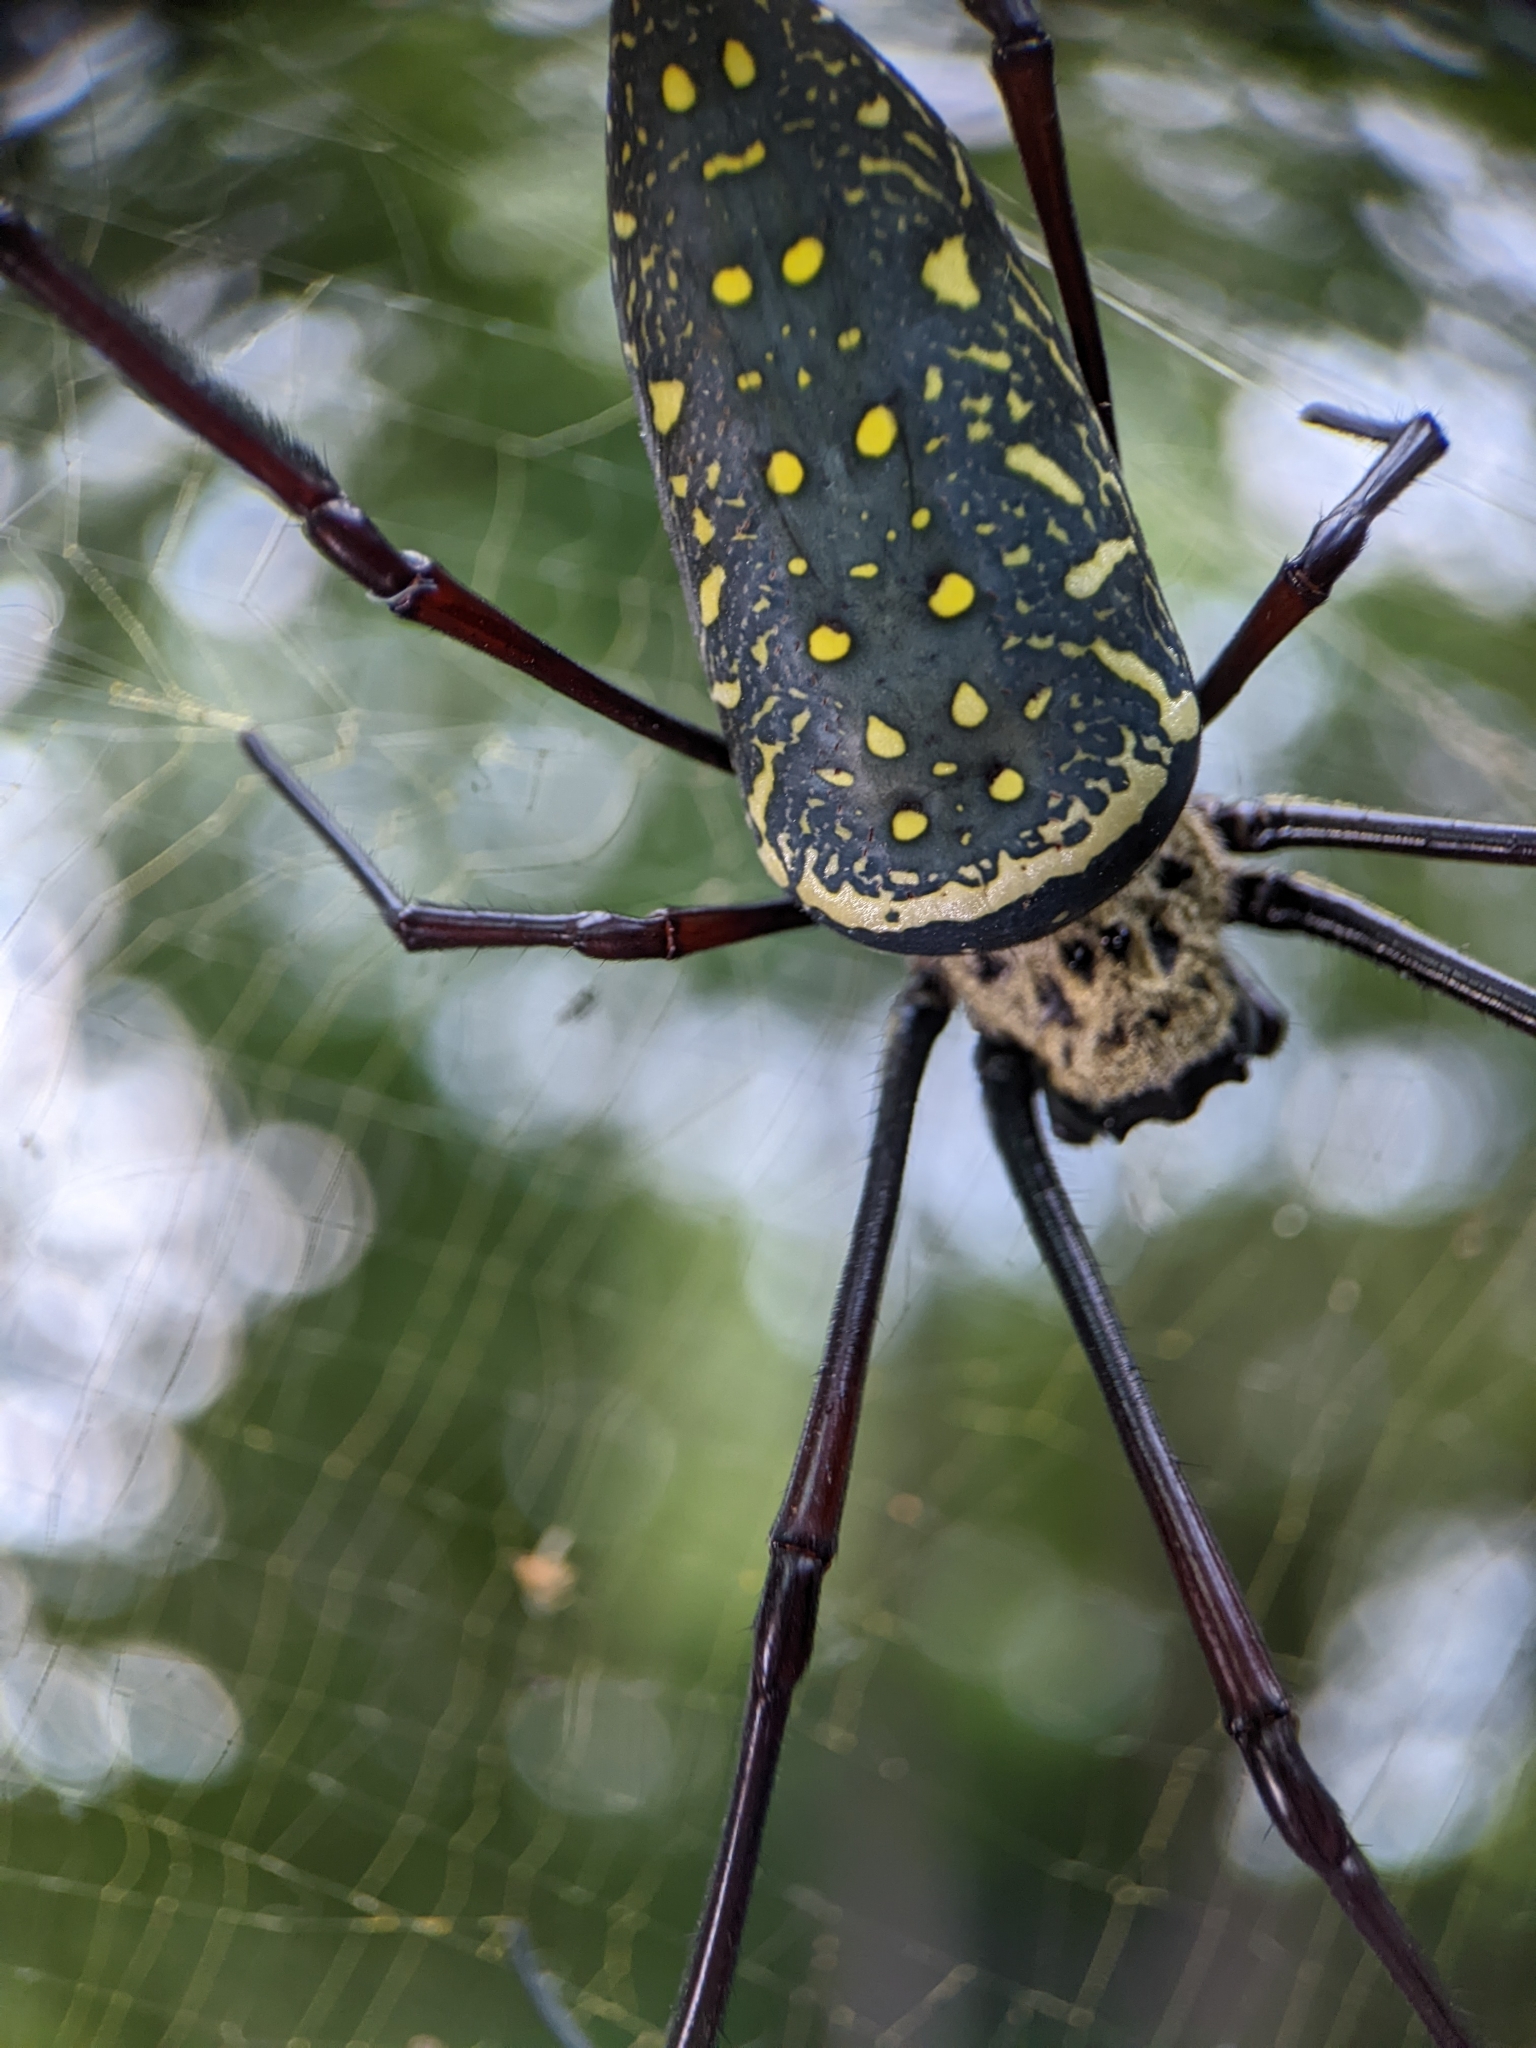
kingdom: Animalia
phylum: Arthropoda
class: Arachnida
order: Araneae
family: Araneidae
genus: Trichonephila
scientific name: Trichonephila antipodiana
